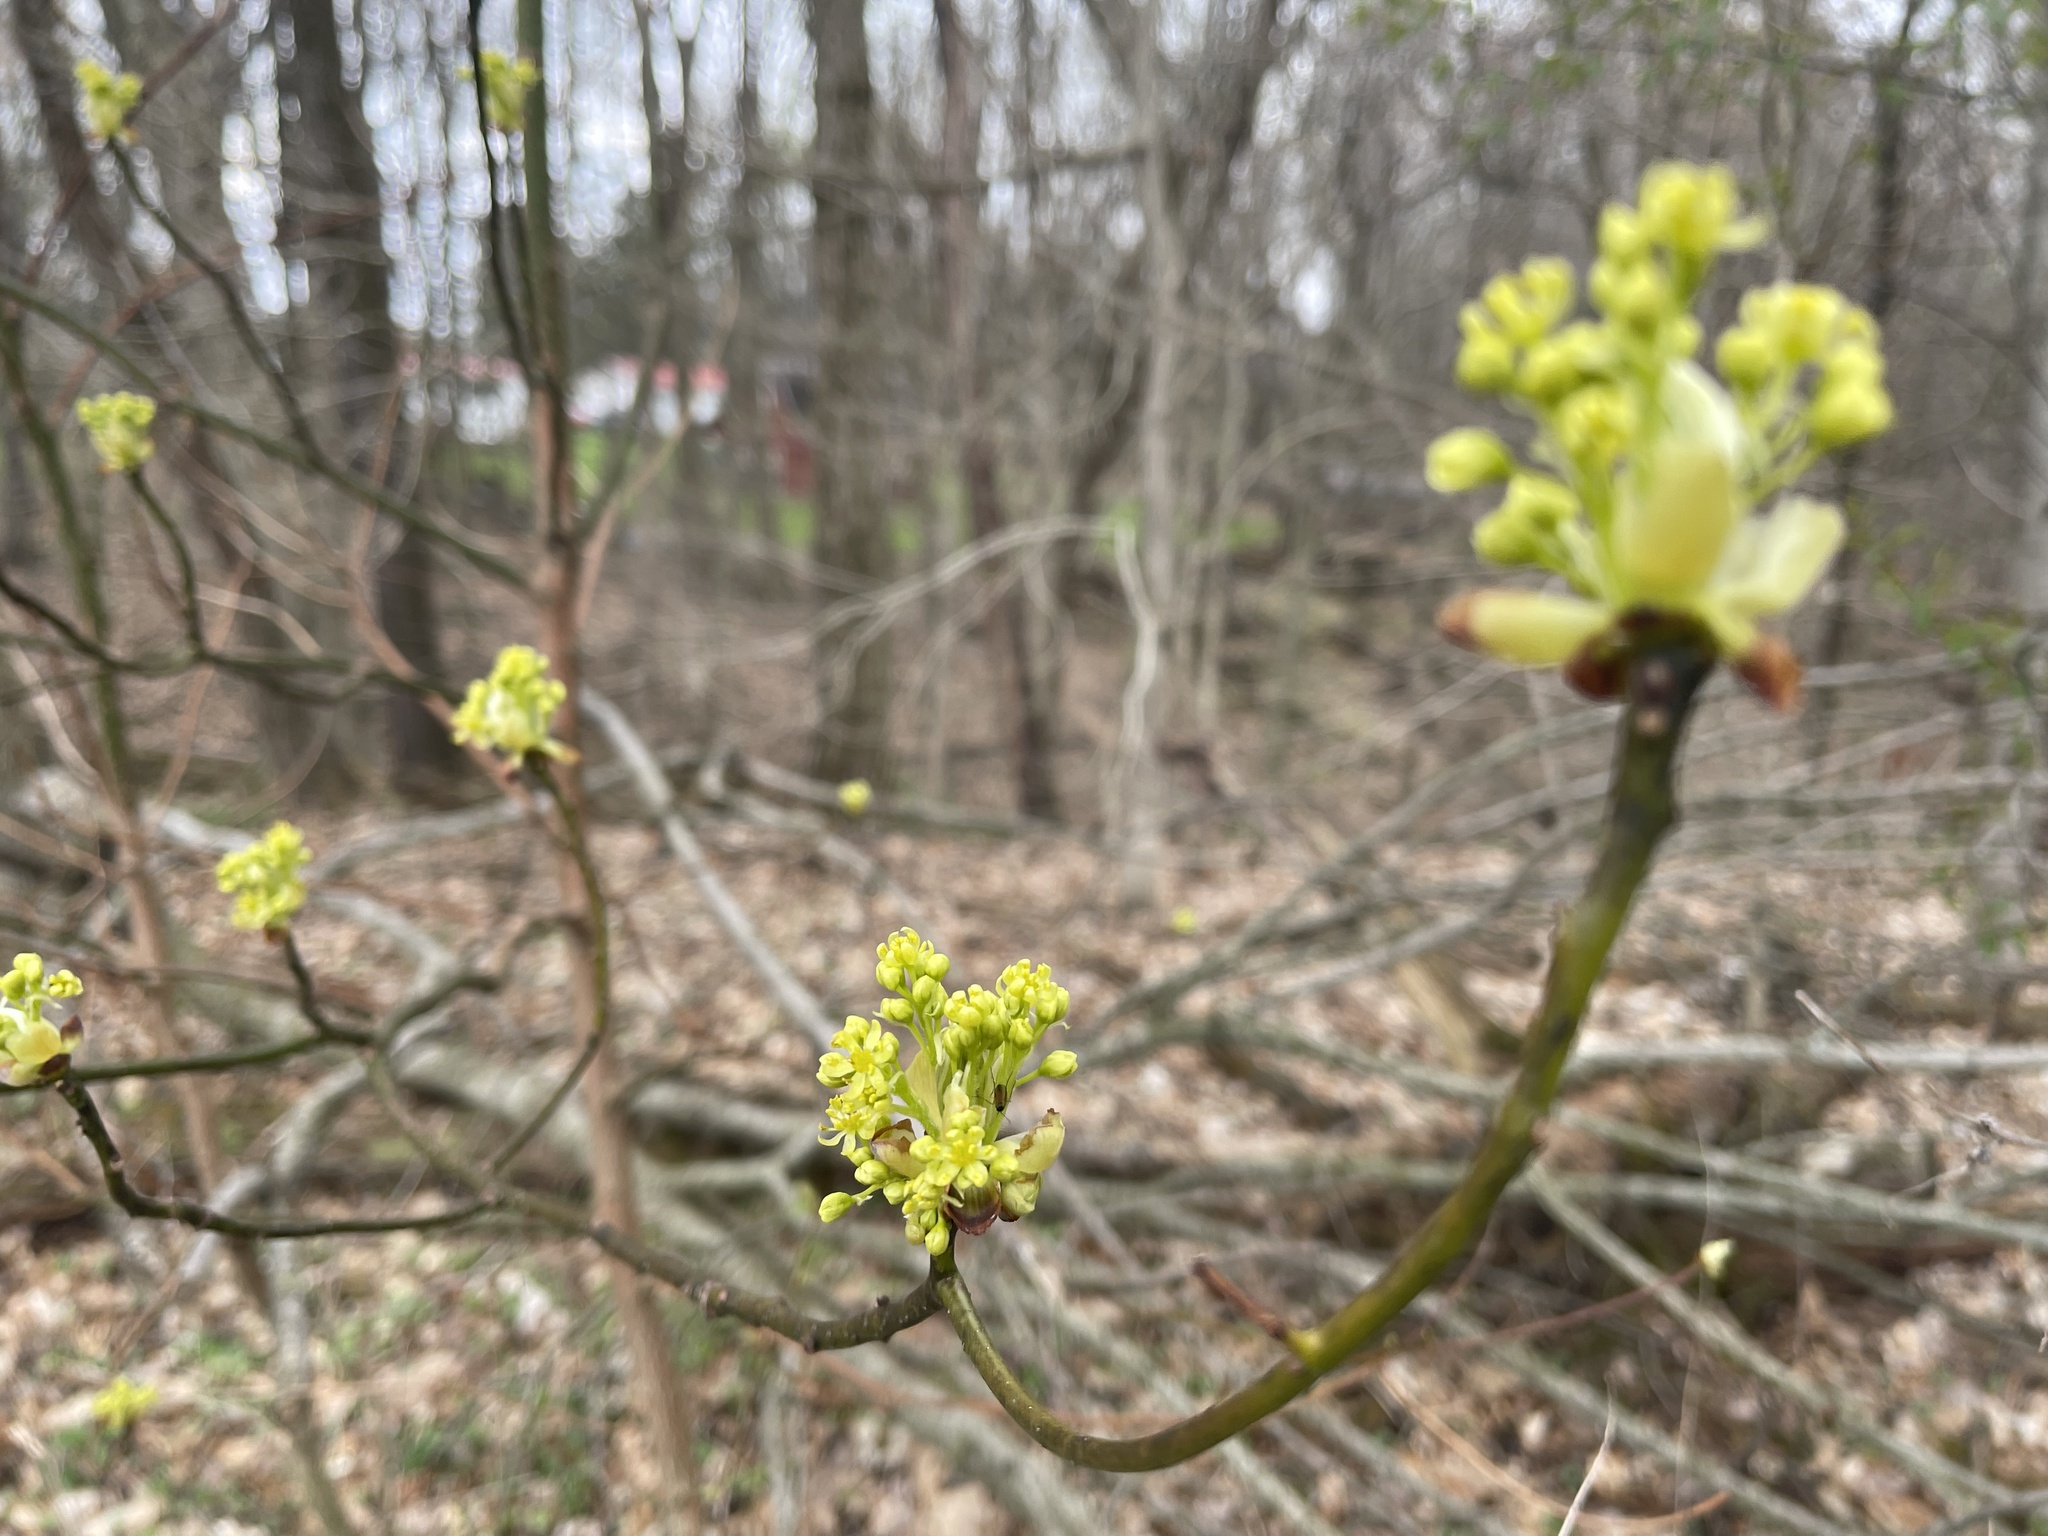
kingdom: Plantae
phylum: Tracheophyta
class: Magnoliopsida
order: Laurales
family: Lauraceae
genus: Sassafras
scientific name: Sassafras albidum
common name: Sassafras
